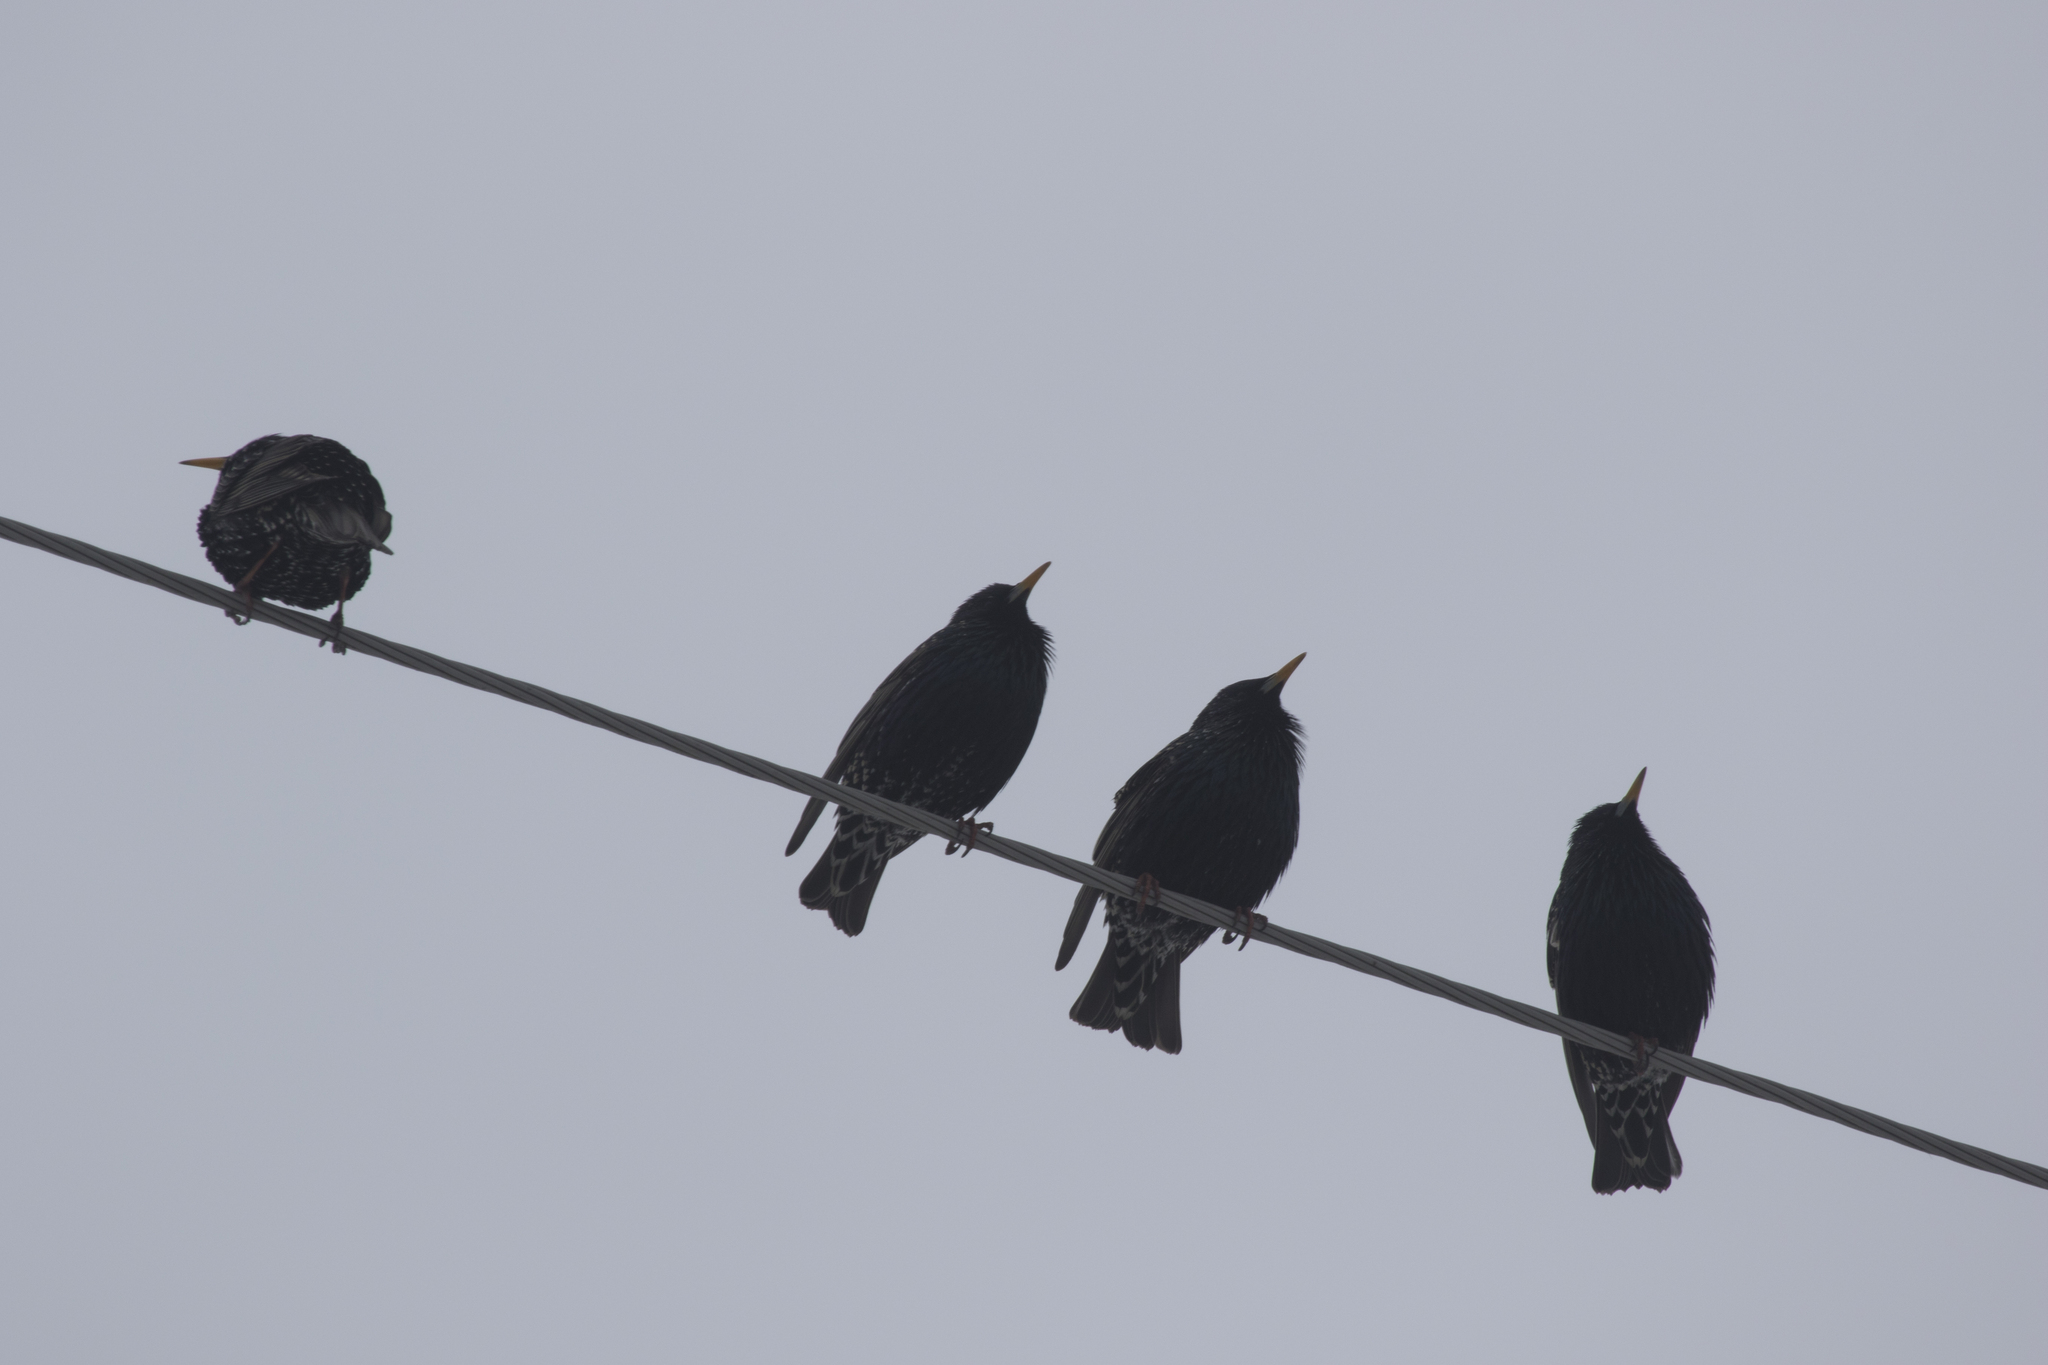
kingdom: Animalia
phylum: Chordata
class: Aves
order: Passeriformes
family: Sturnidae
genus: Sturnus
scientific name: Sturnus vulgaris
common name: Common starling
